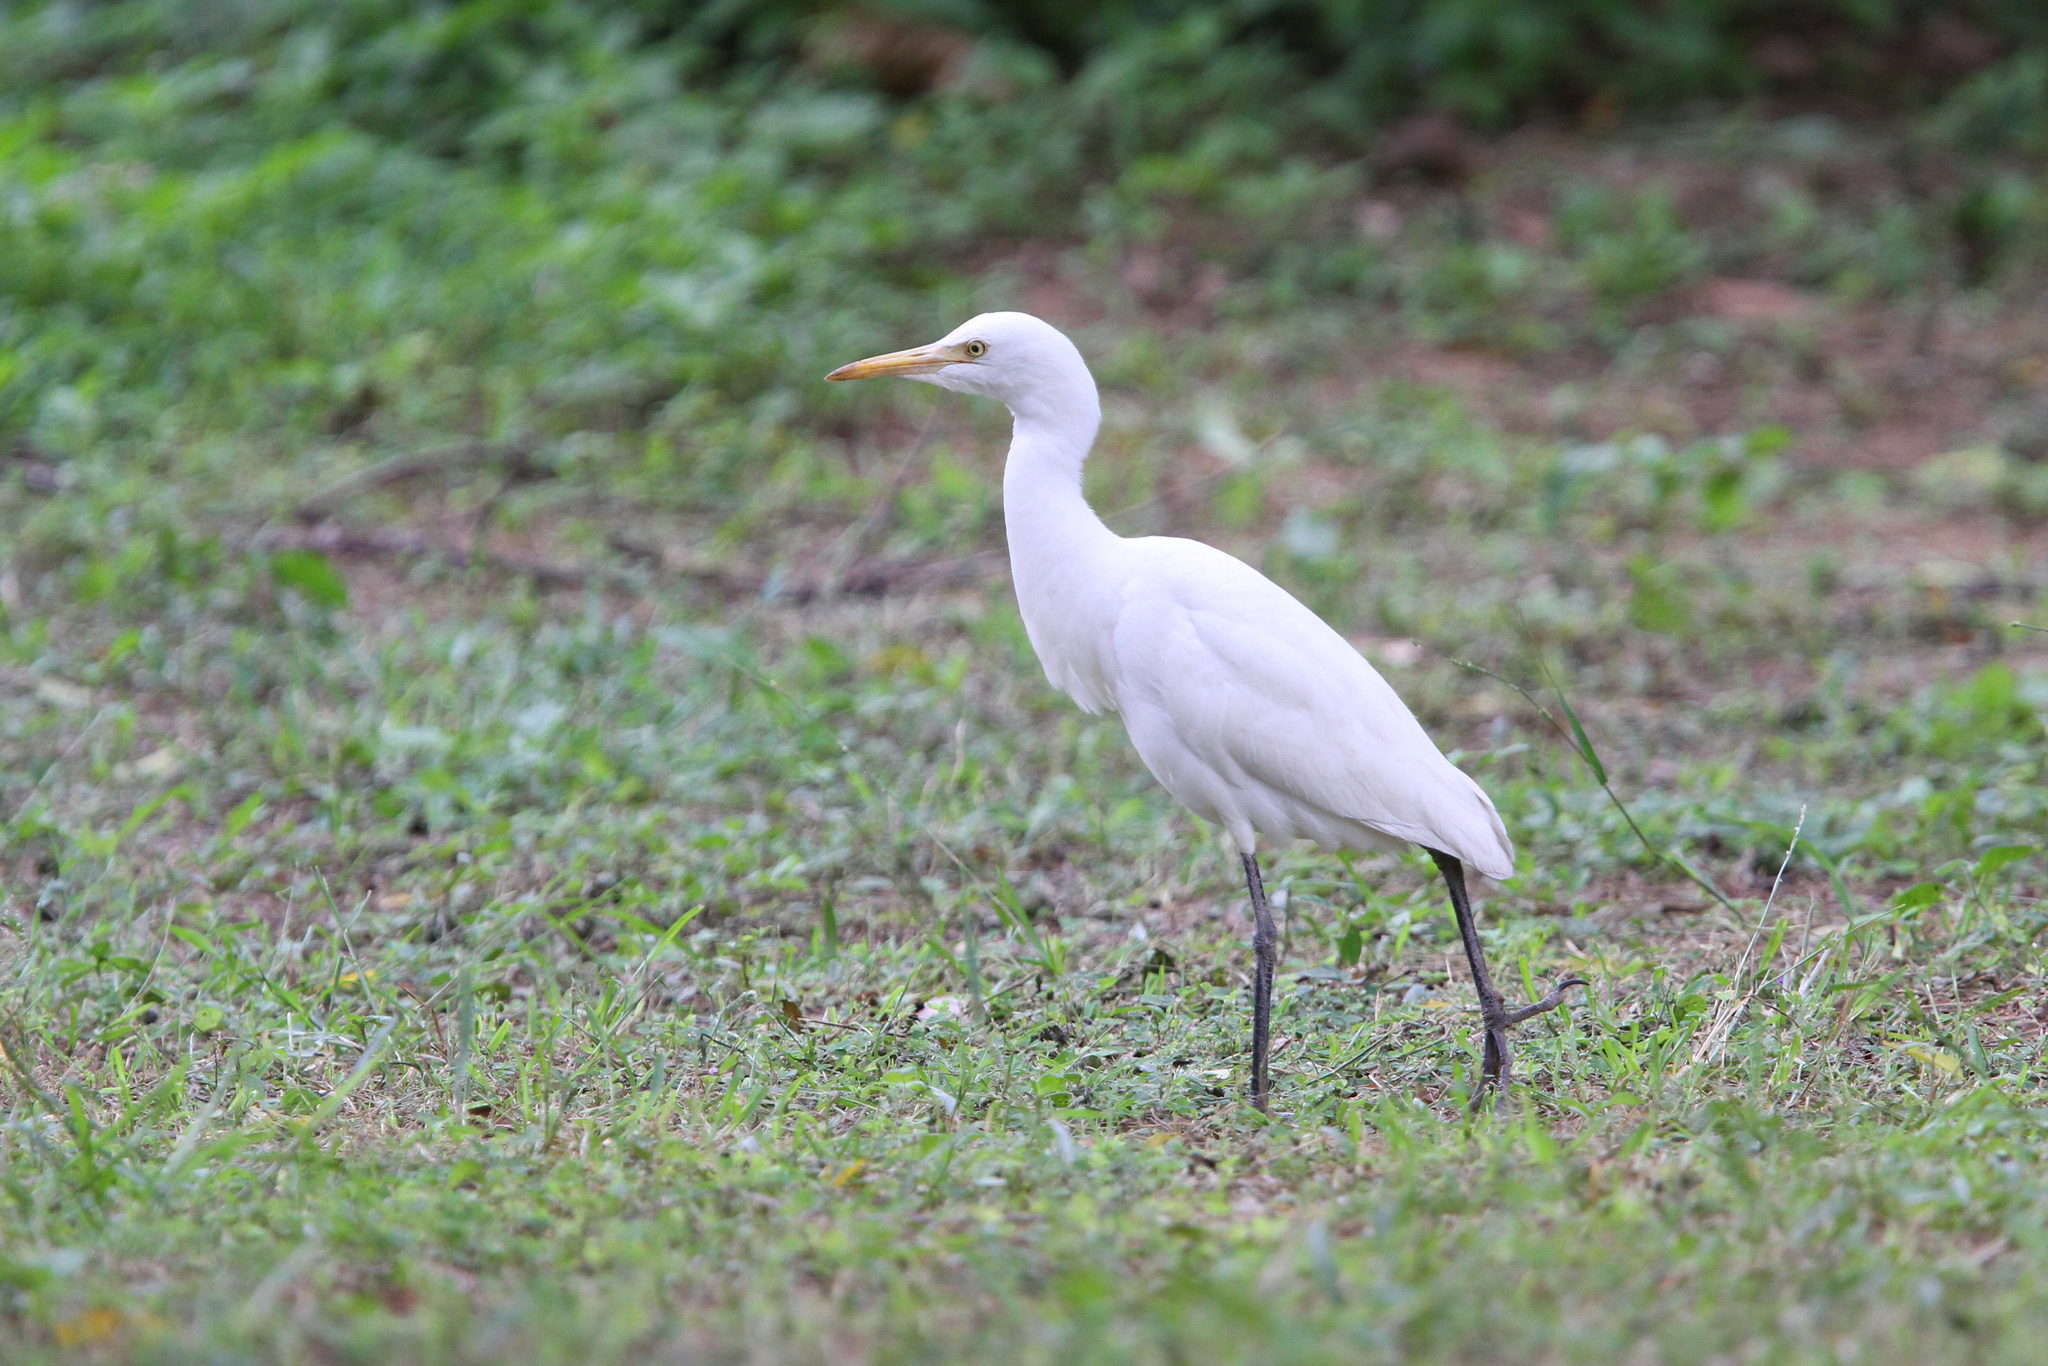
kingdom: Animalia
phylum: Chordata
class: Aves
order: Pelecaniformes
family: Ardeidae
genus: Bubulcus
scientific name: Bubulcus coromandus
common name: Eastern cattle egret
